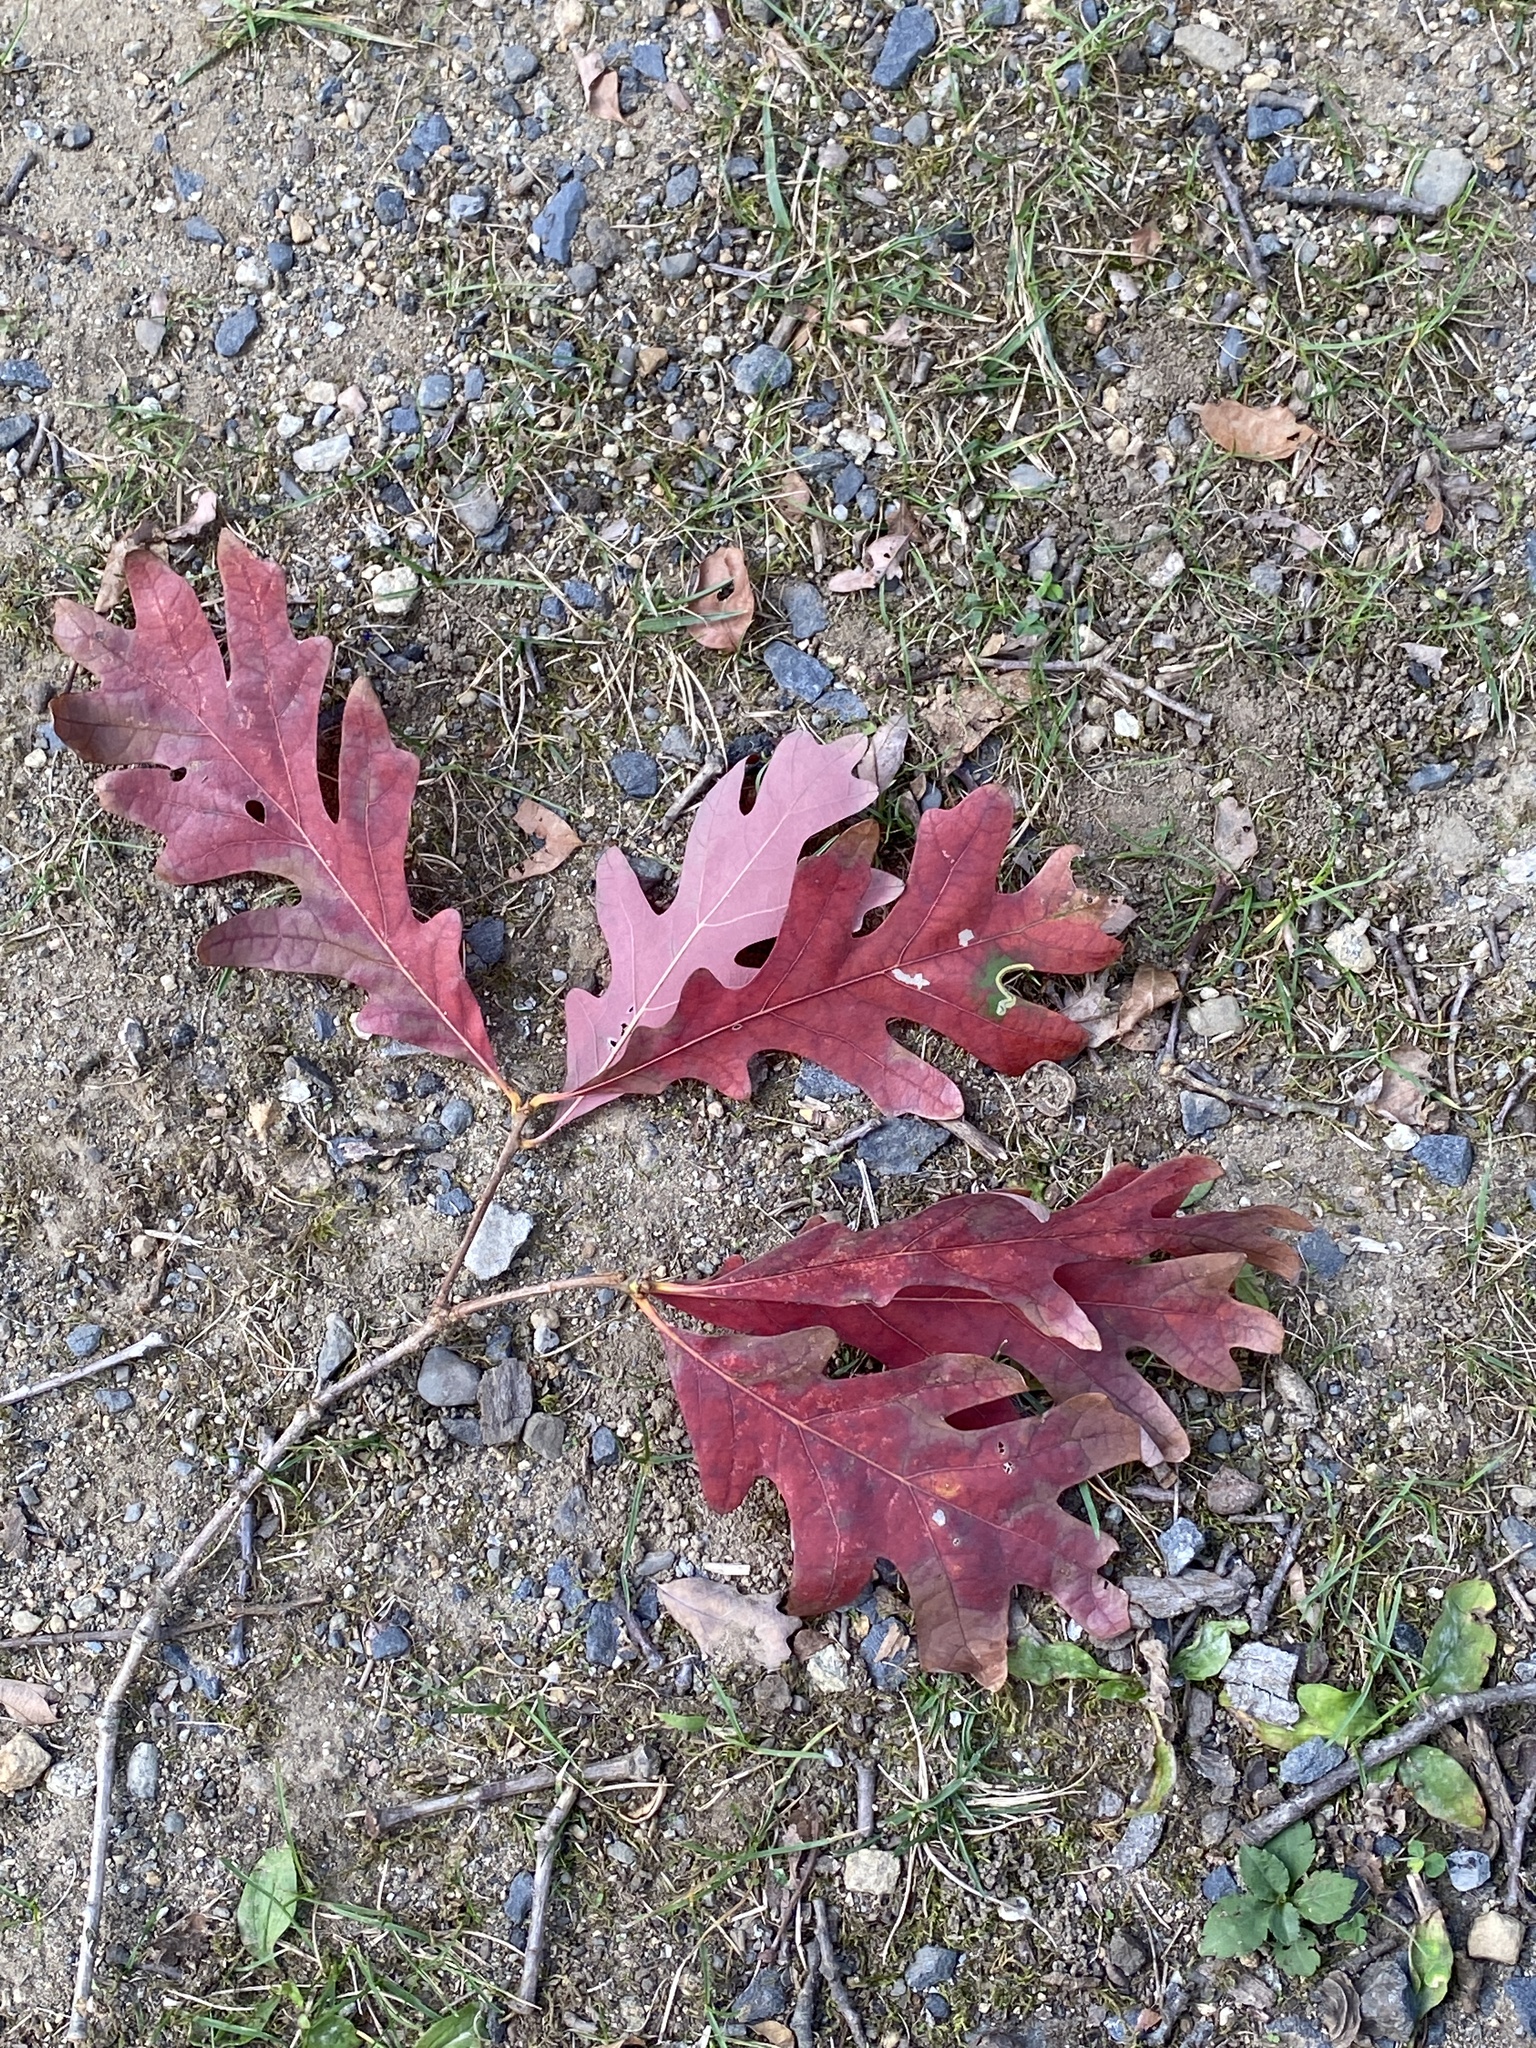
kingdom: Plantae
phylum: Tracheophyta
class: Magnoliopsida
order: Fagales
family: Fagaceae
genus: Quercus
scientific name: Quercus alba
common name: White oak
